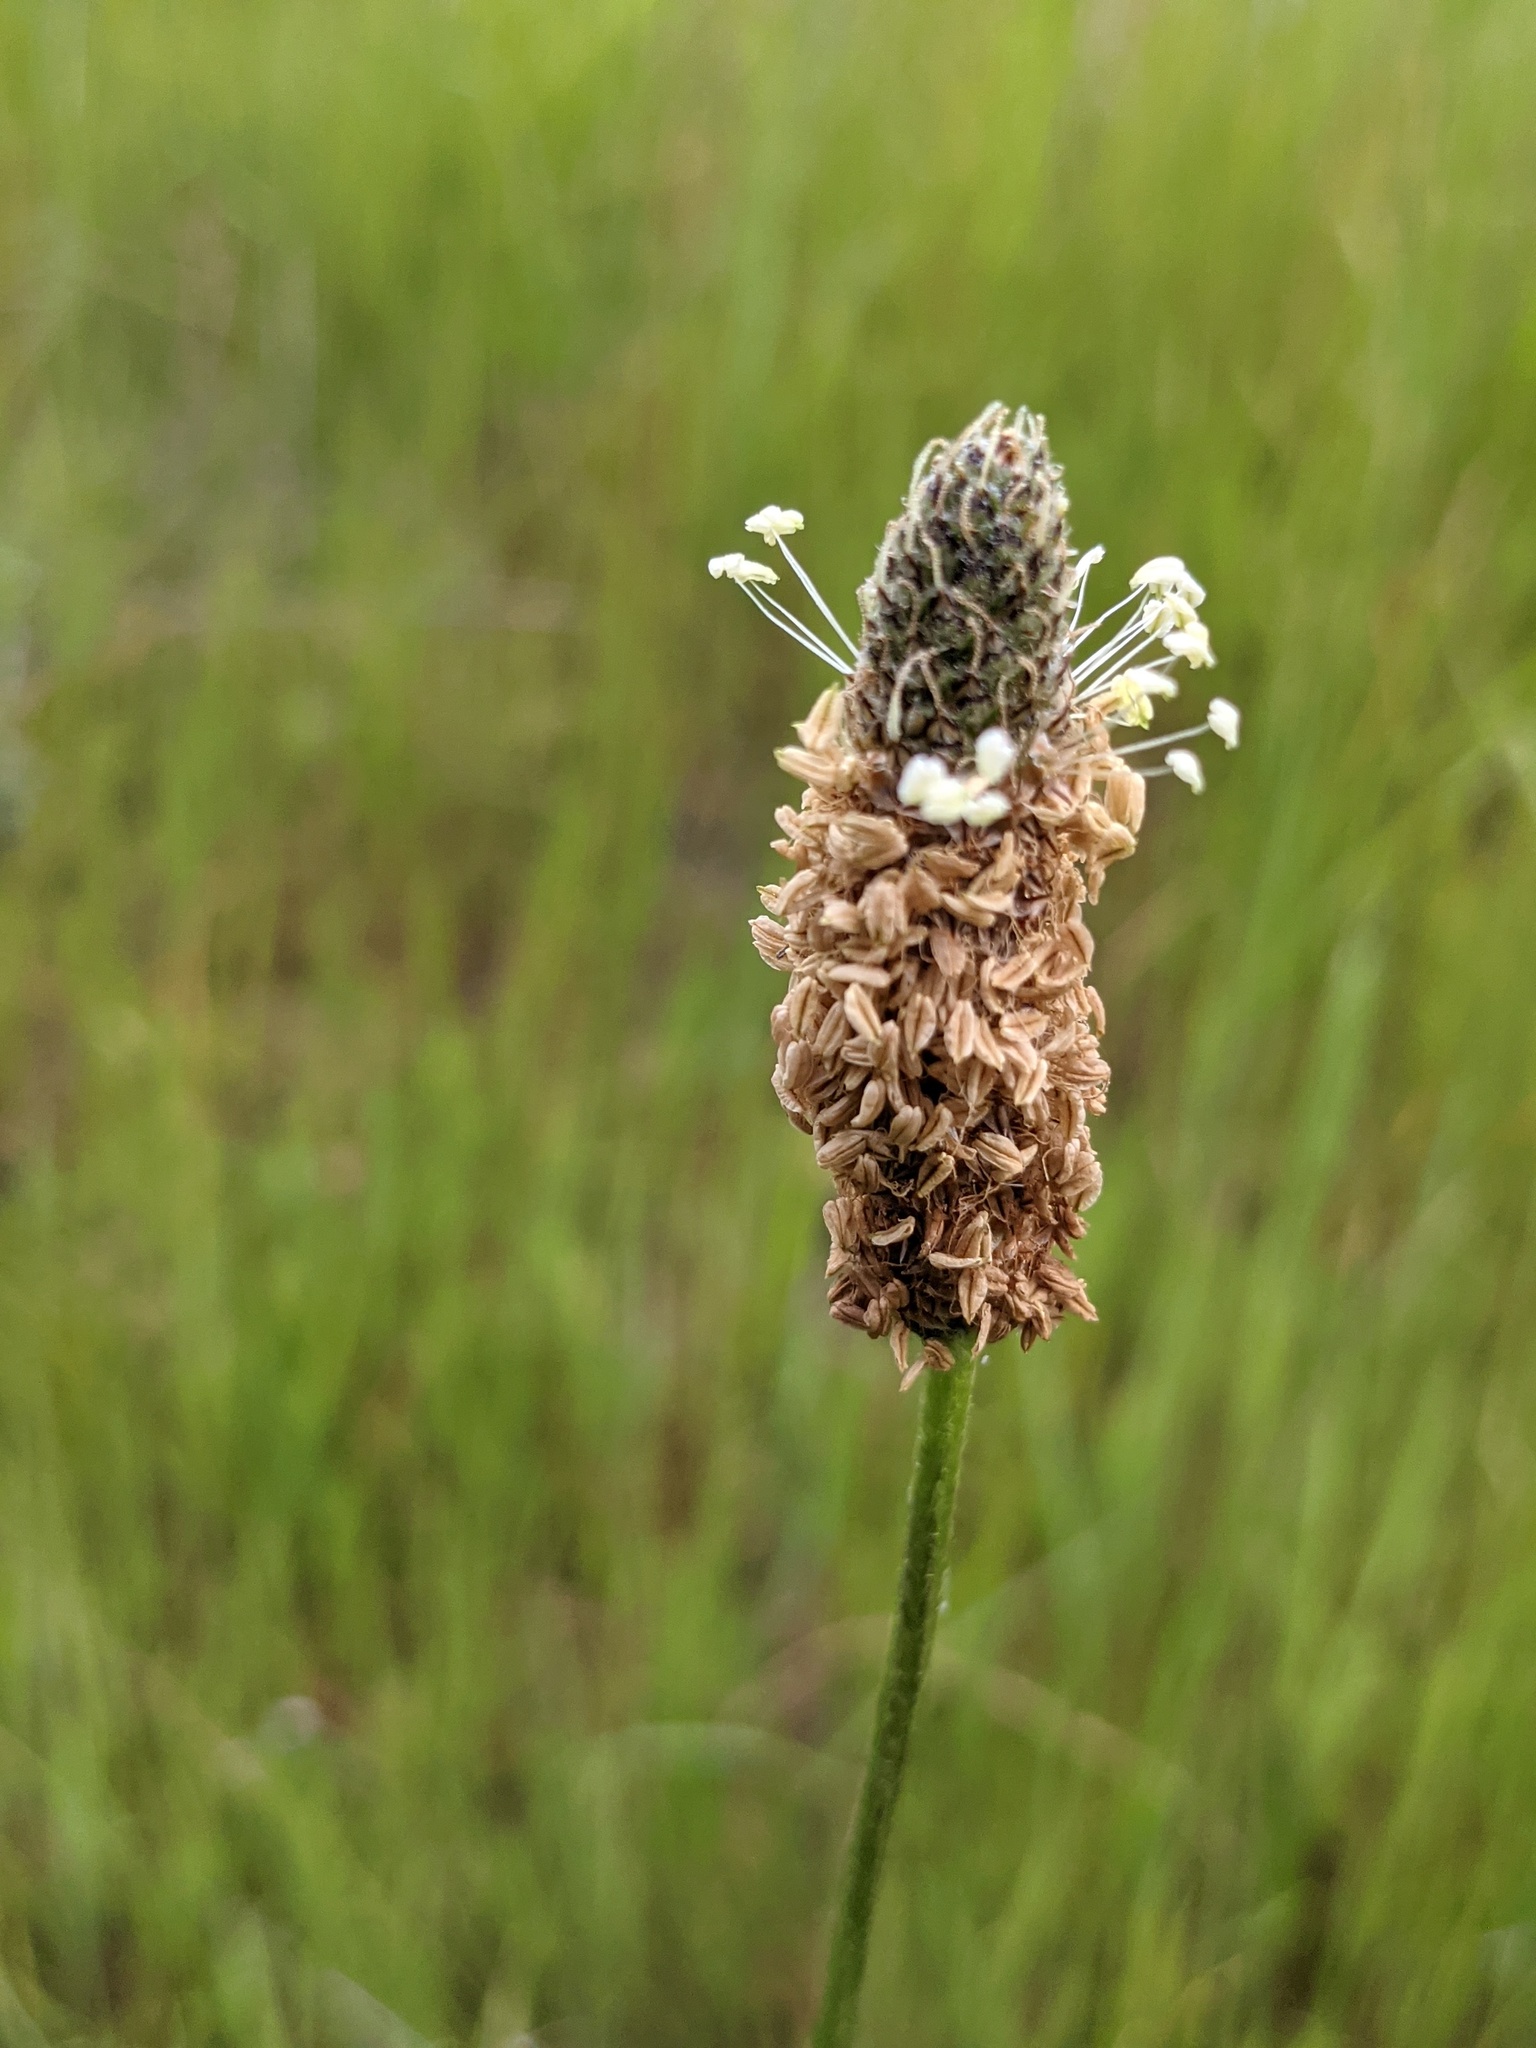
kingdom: Plantae
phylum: Tracheophyta
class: Magnoliopsida
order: Lamiales
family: Plantaginaceae
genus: Plantago
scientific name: Plantago lanceolata
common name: Ribwort plantain
